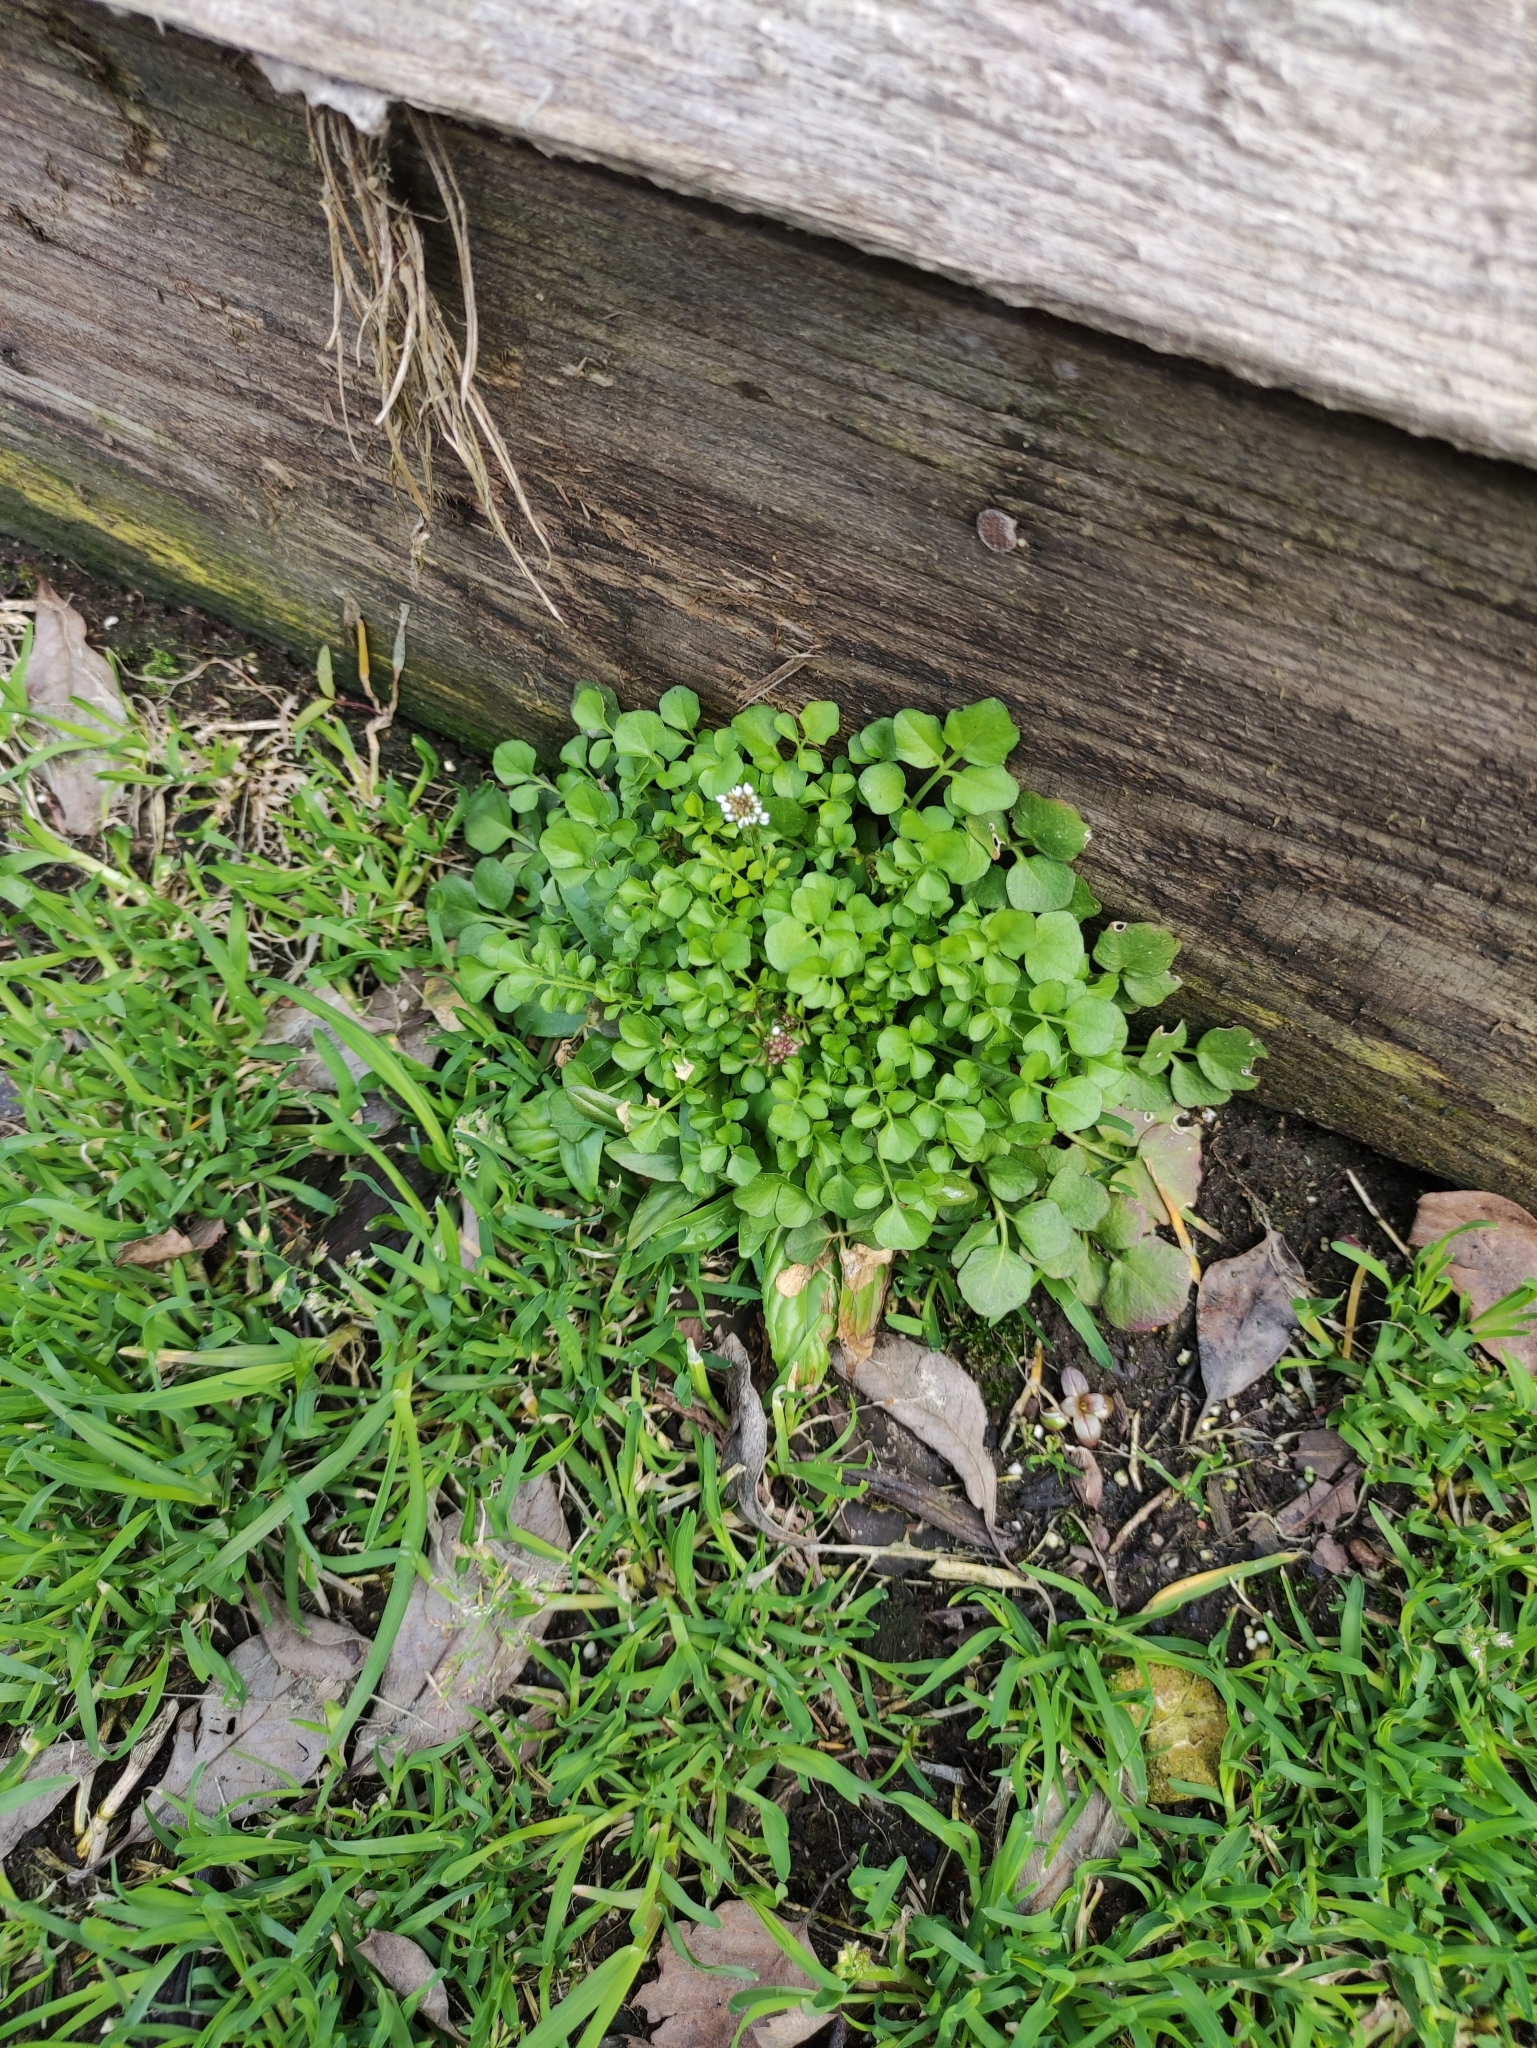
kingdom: Plantae
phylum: Tracheophyta
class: Magnoliopsida
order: Brassicales
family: Brassicaceae
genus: Cardamine
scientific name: Cardamine hirsuta
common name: Hairy bittercress
